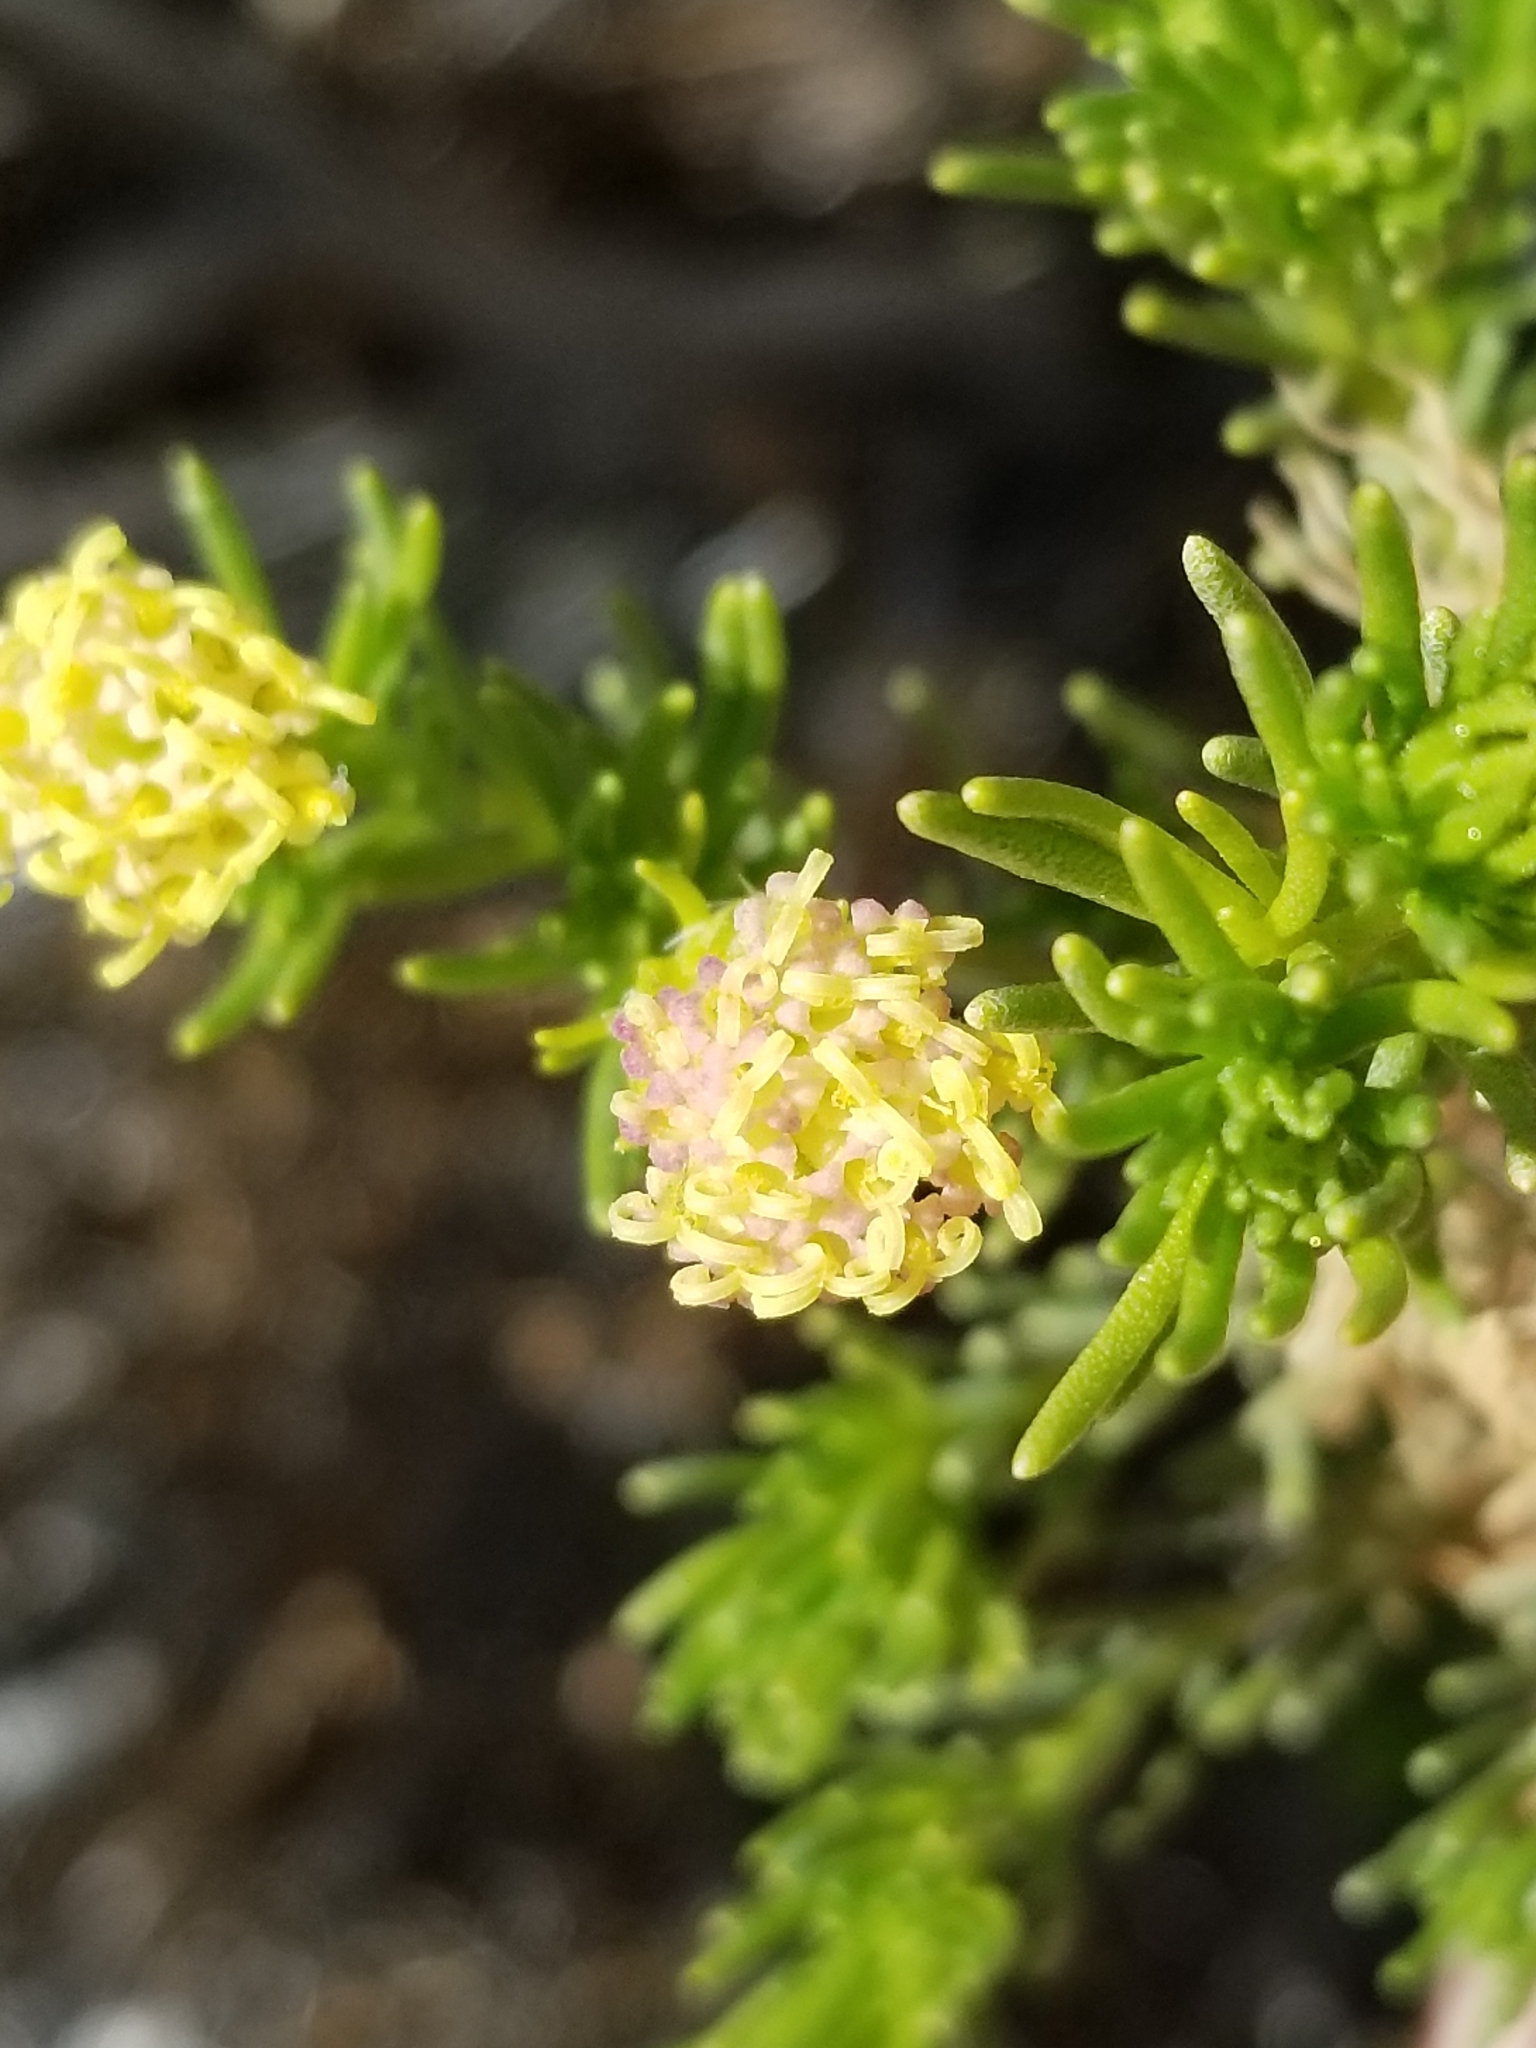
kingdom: Plantae
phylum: Tracheophyta
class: Magnoliopsida
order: Asterales
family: Asteraceae
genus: Peucephyllum
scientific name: Peucephyllum schottii
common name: Pygmy-cedar
